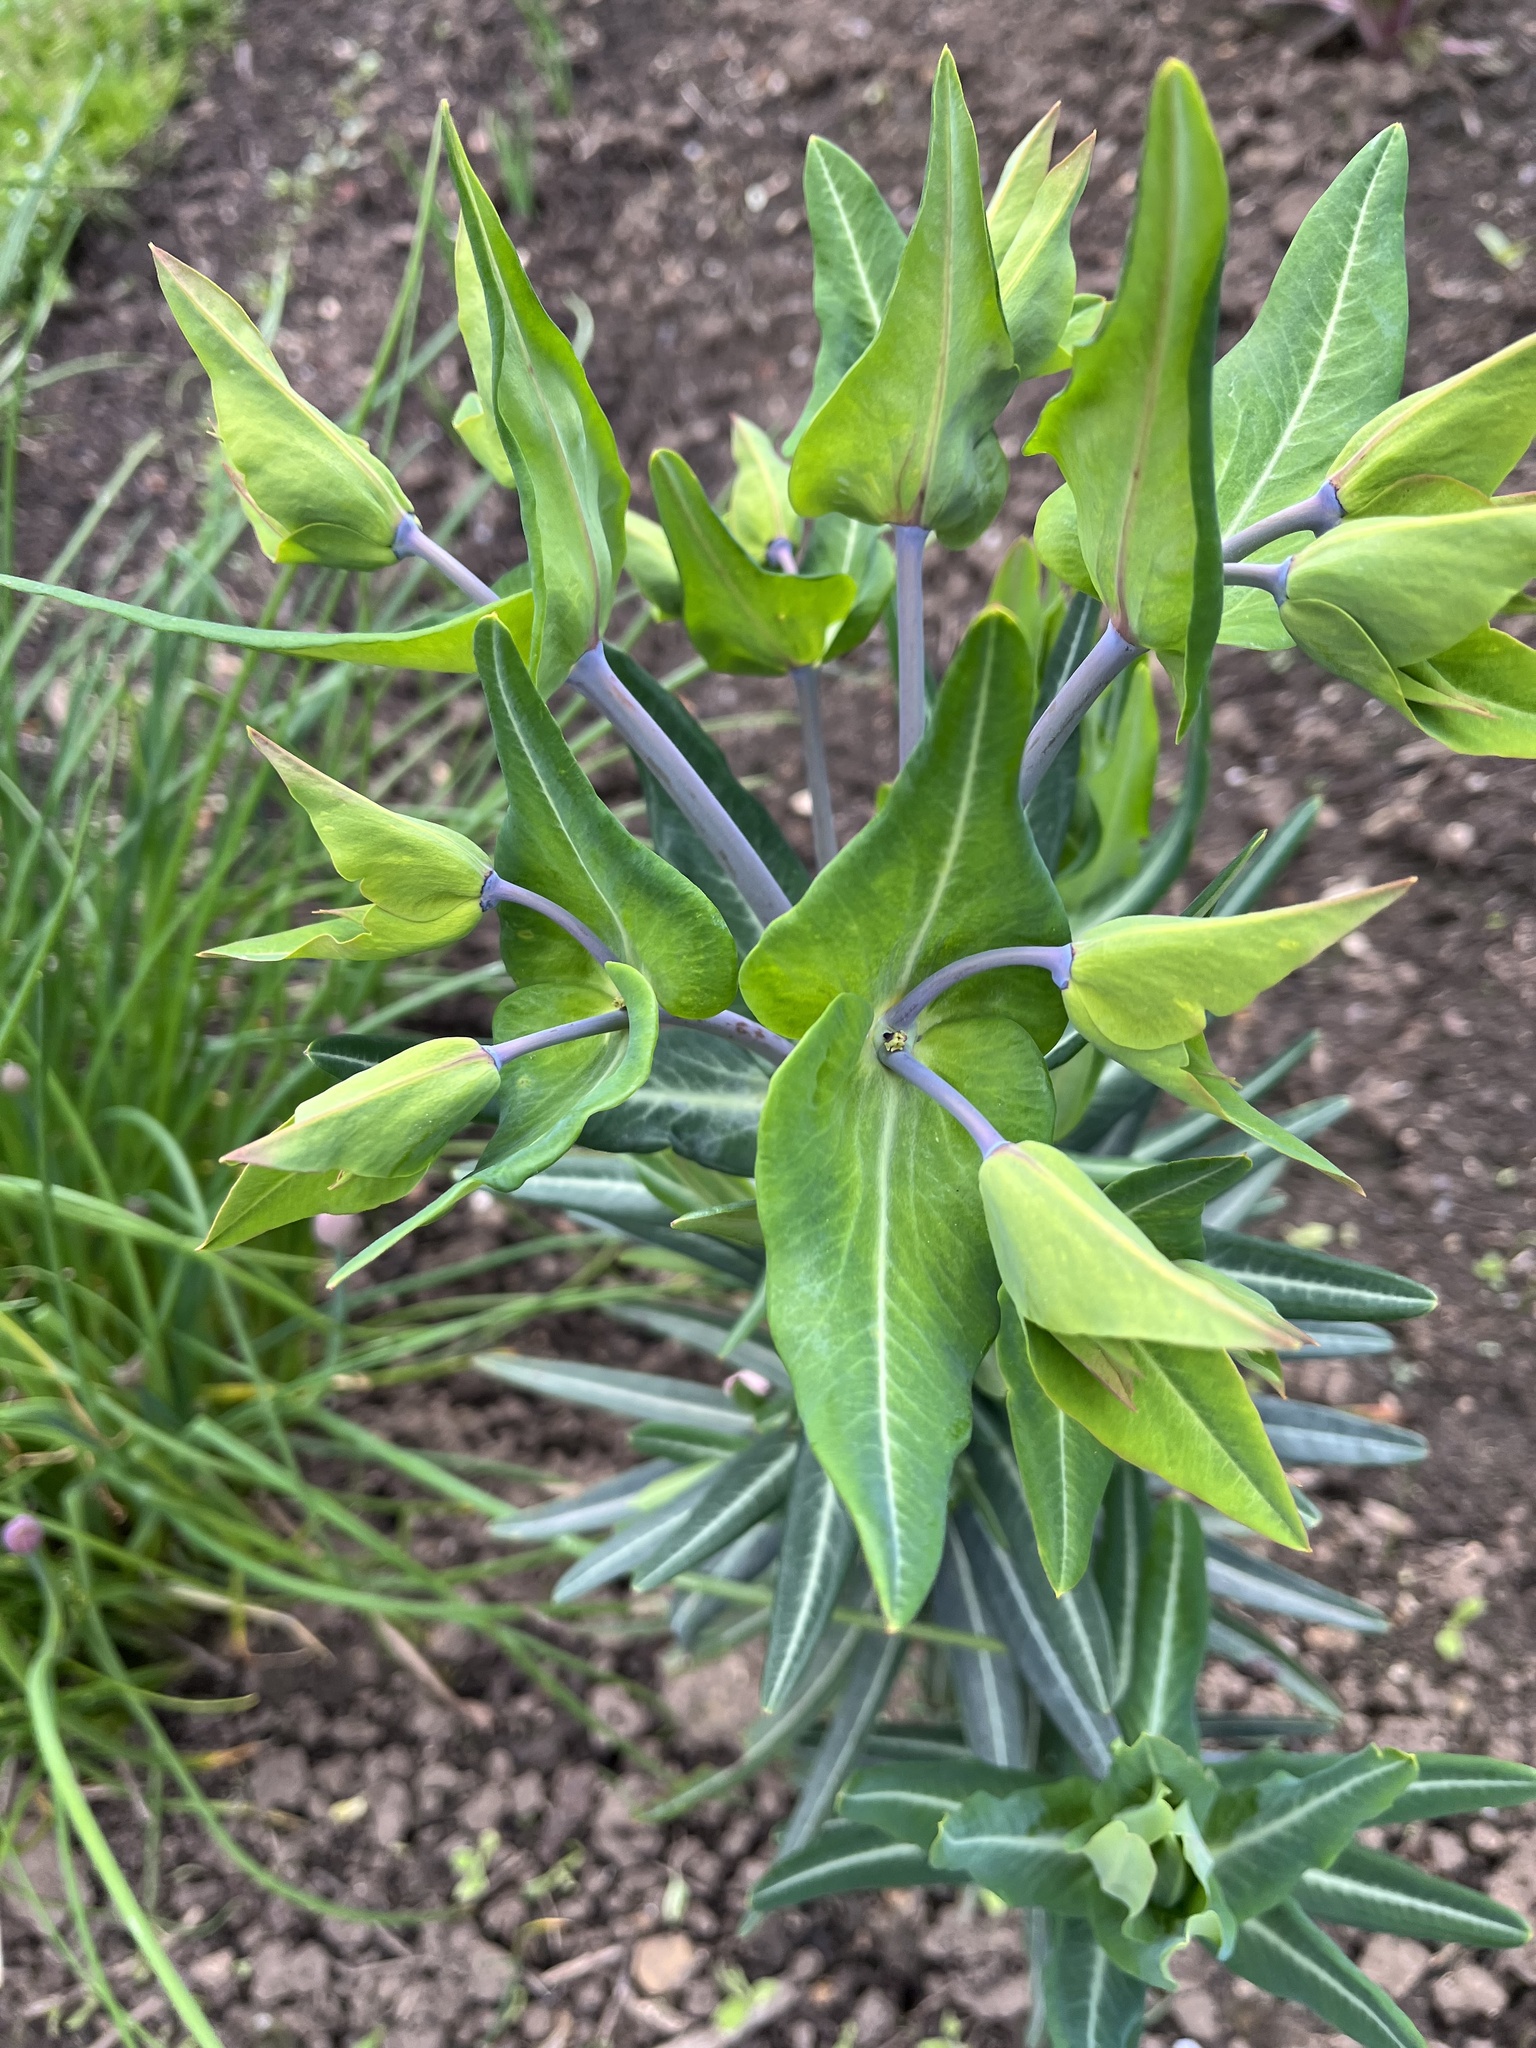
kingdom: Plantae
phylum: Tracheophyta
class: Magnoliopsida
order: Malpighiales
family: Euphorbiaceae
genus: Euphorbia
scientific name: Euphorbia lathyris
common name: Caper spurge
